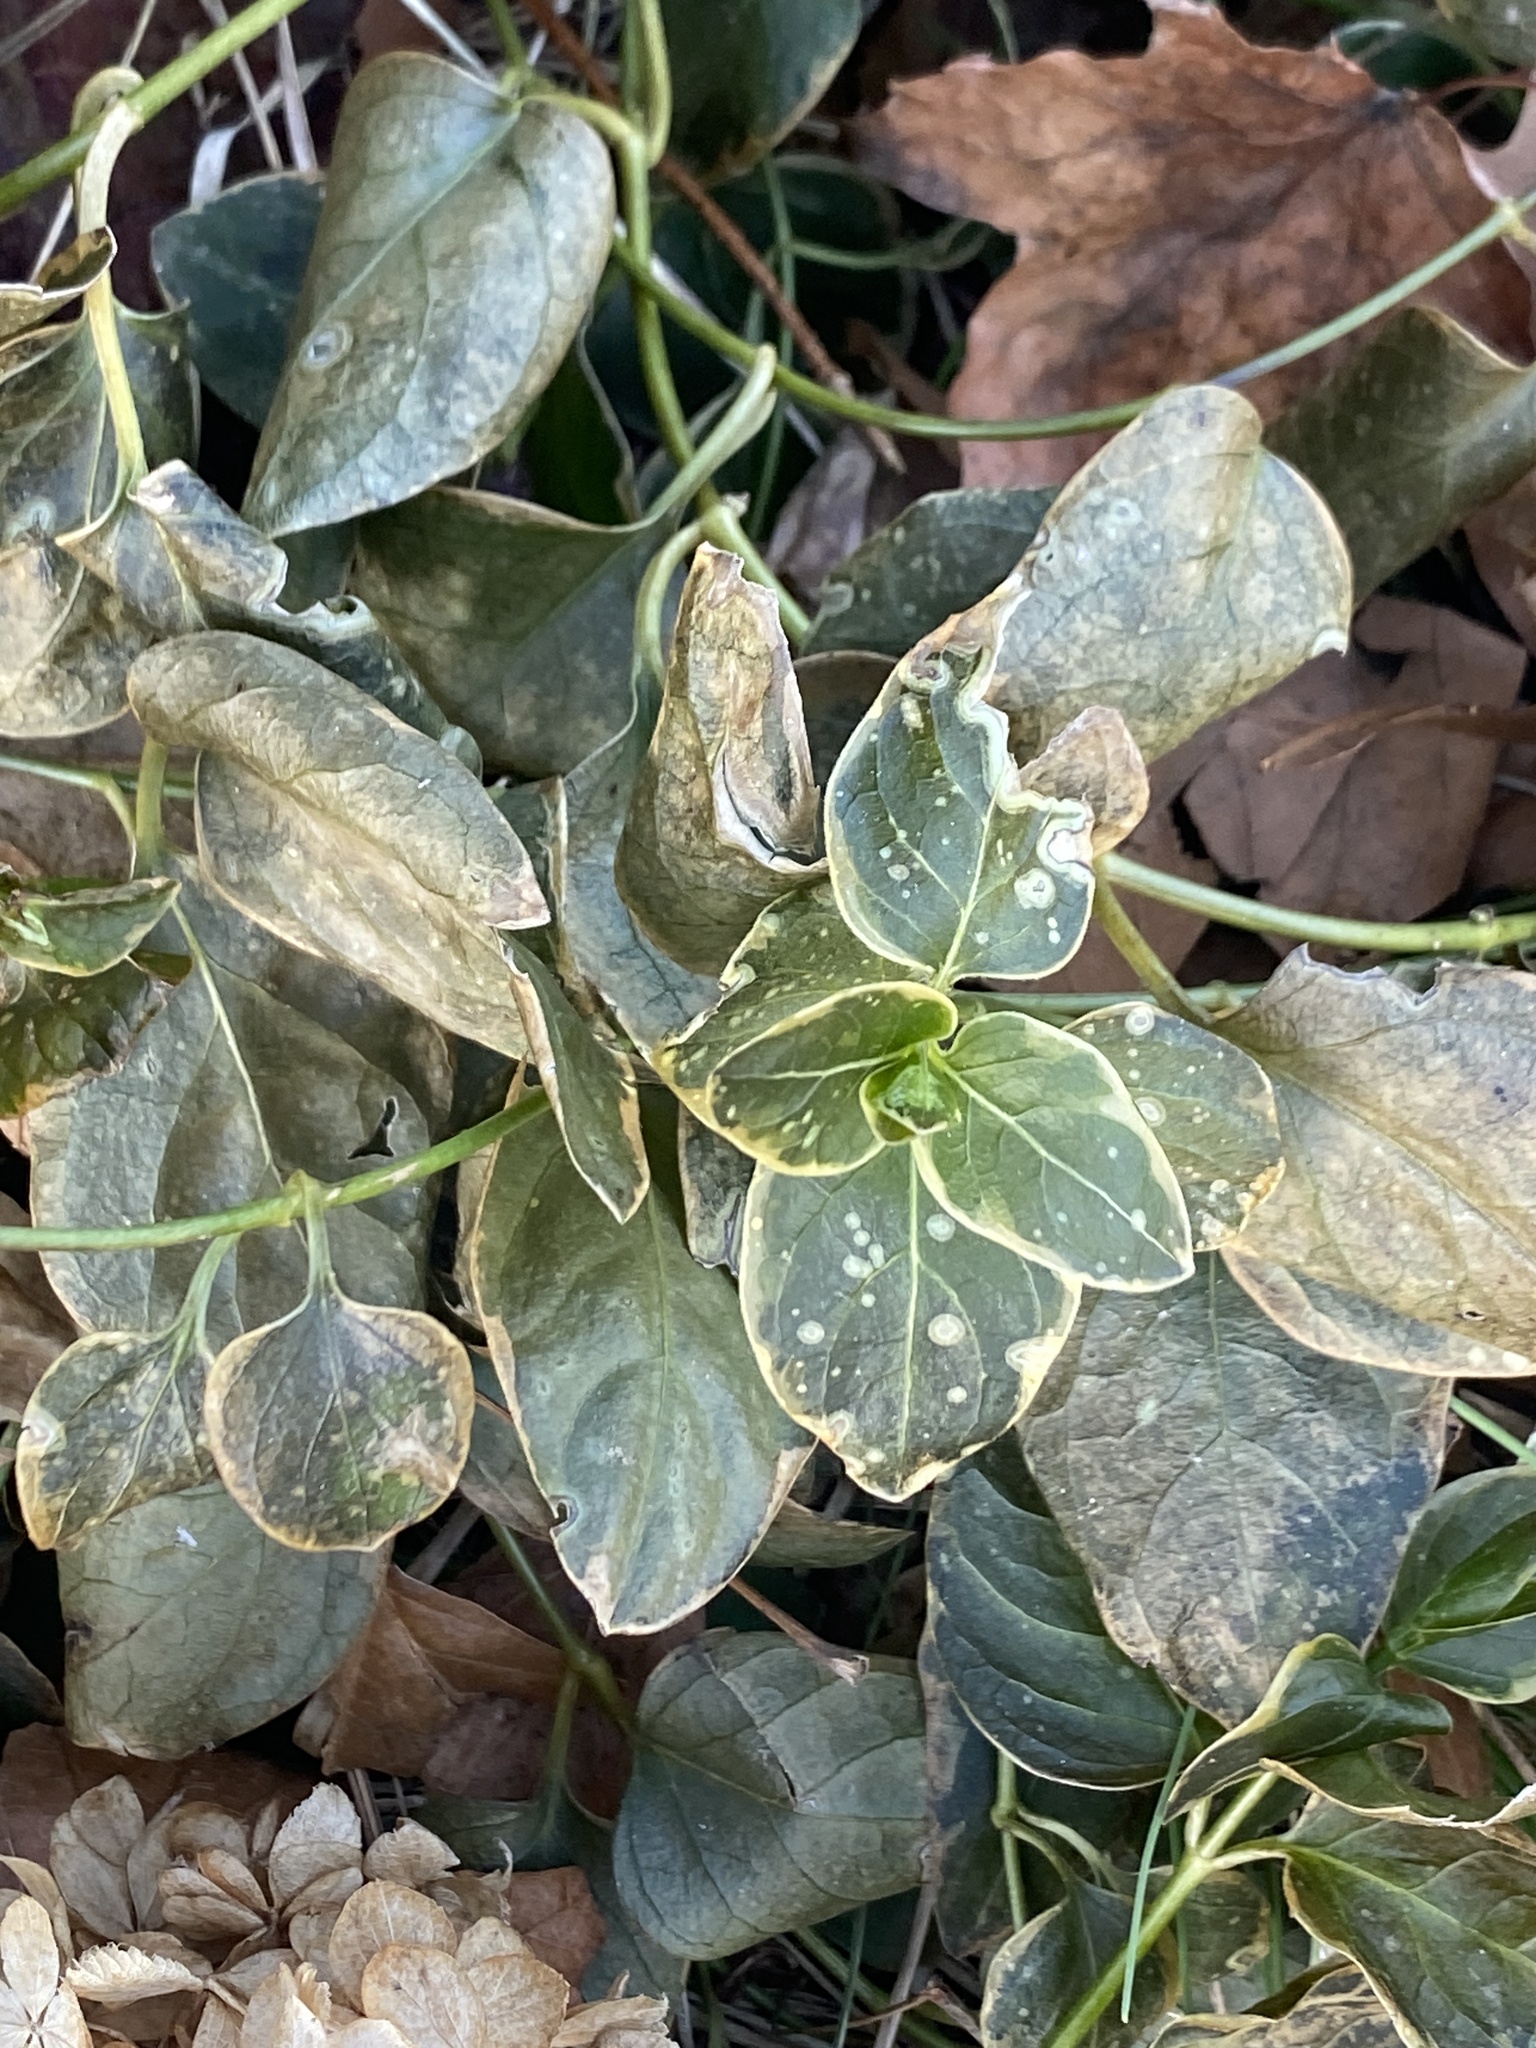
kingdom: Plantae
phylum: Tracheophyta
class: Magnoliopsida
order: Gentianales
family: Apocynaceae
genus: Vinca
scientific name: Vinca major
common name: Greater periwinkle
